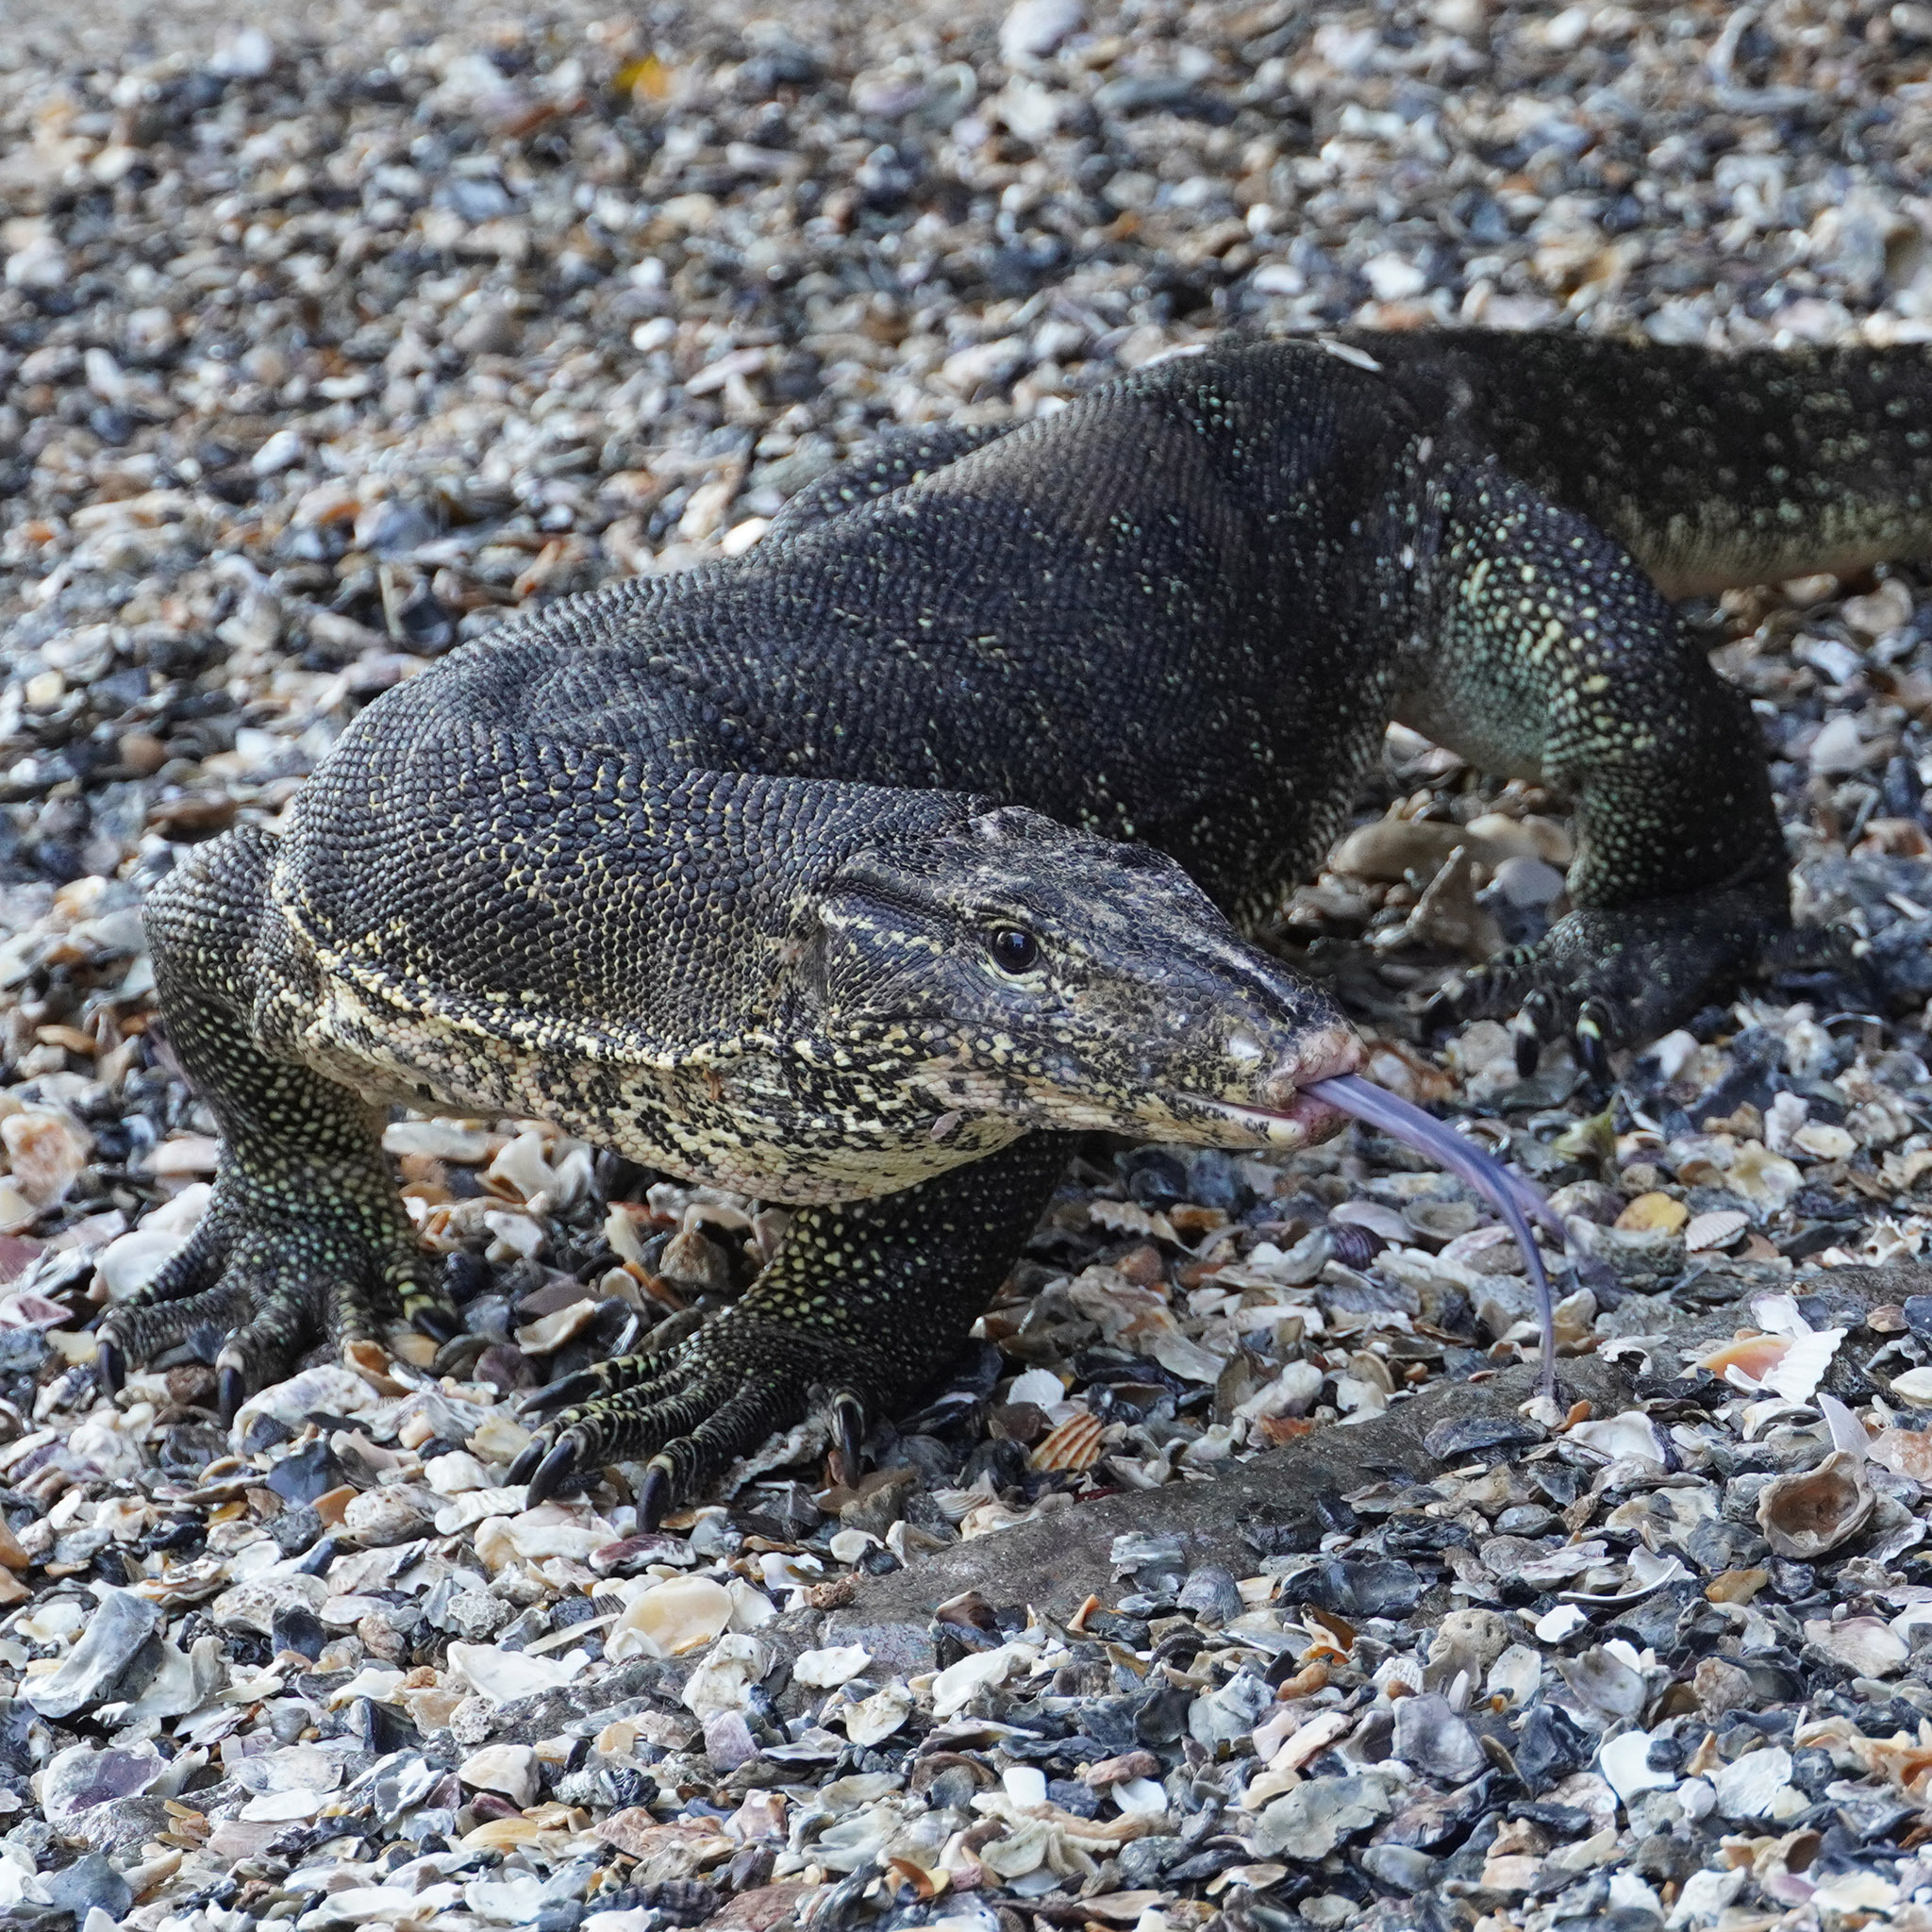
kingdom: Animalia
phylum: Chordata
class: Squamata
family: Varanidae
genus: Varanus
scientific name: Varanus salvator
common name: Common water monitor
